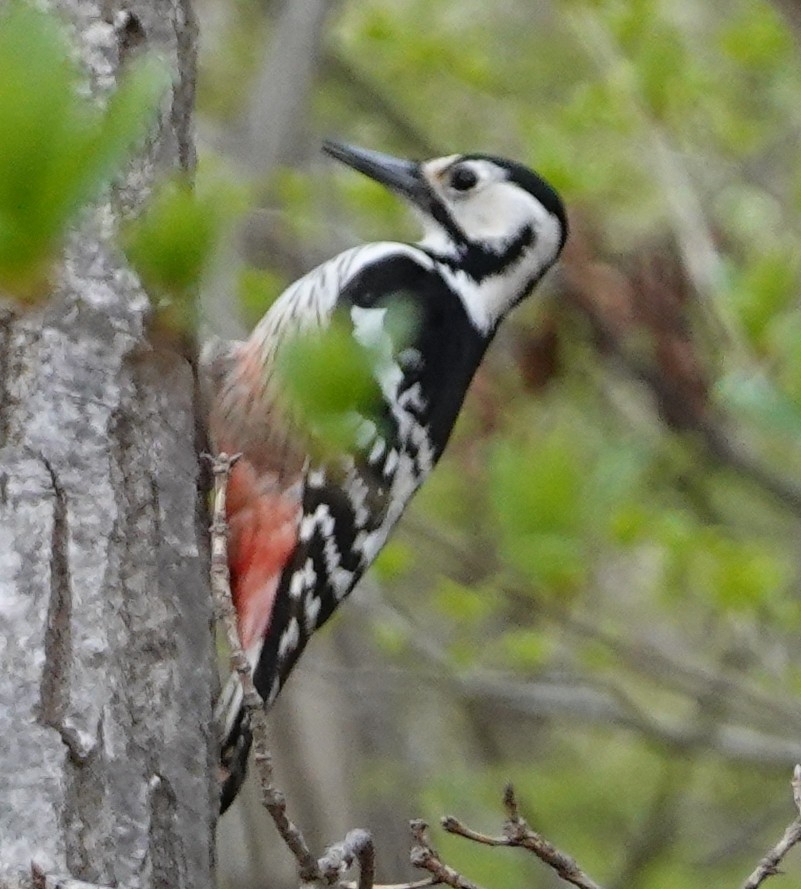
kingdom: Animalia
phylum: Chordata
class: Aves
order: Piciformes
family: Picidae
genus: Dendrocopos
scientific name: Dendrocopos leucotos
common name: White-backed woodpecker
